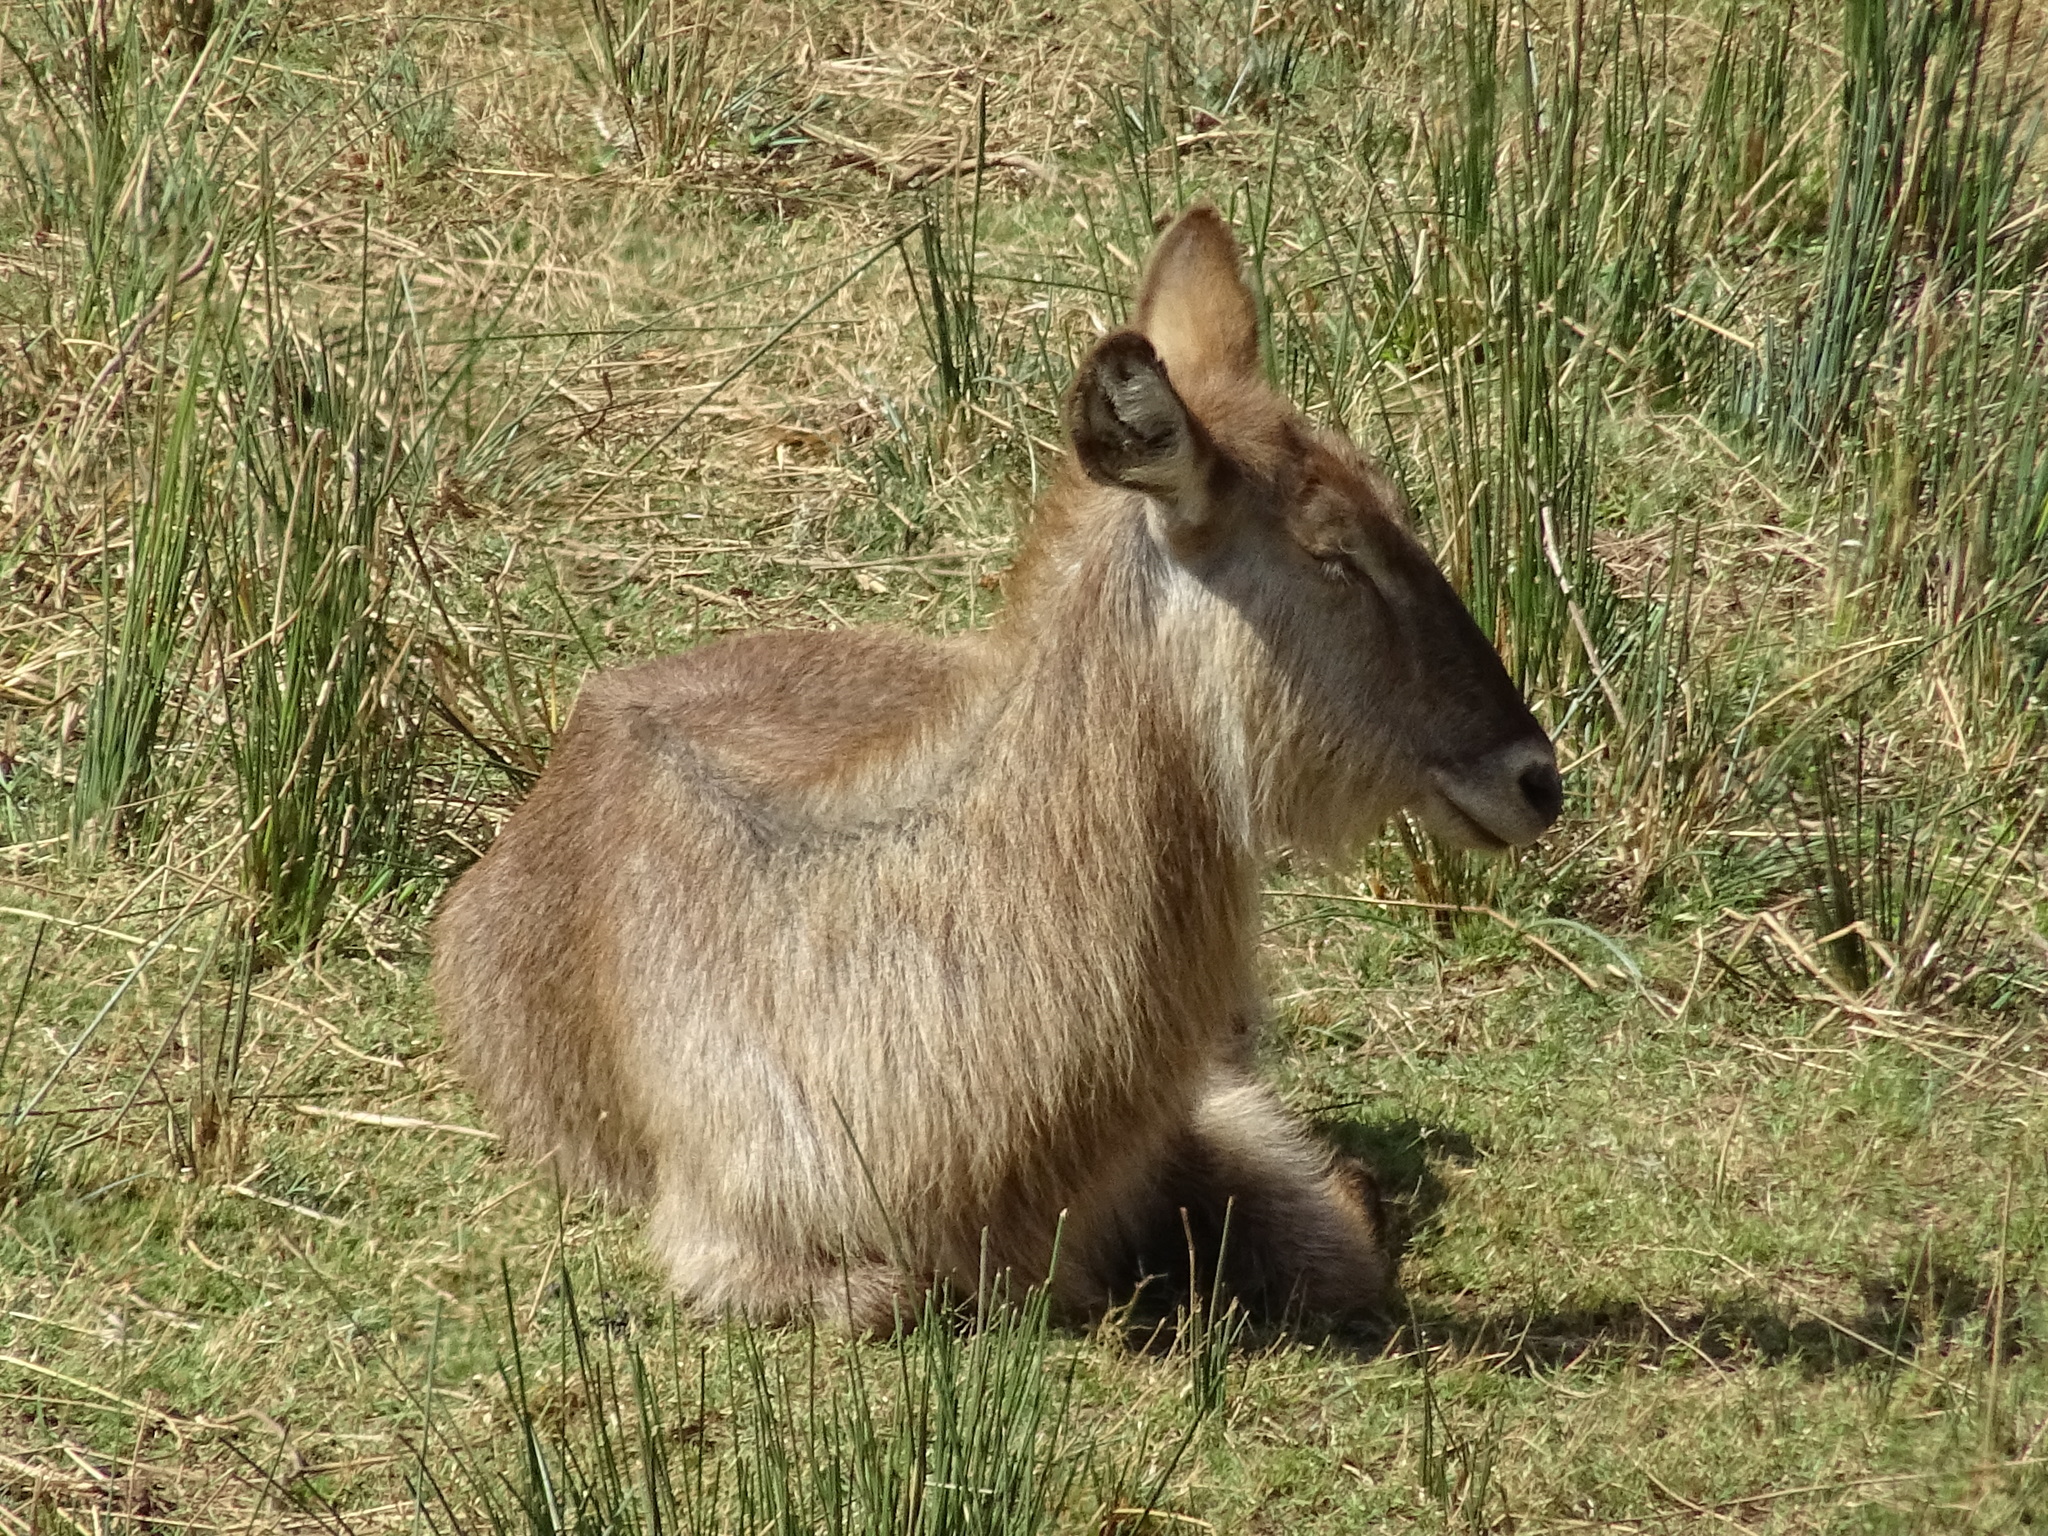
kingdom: Animalia
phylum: Chordata
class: Mammalia
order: Artiodactyla
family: Bovidae
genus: Kobus
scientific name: Kobus ellipsiprymnus
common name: Waterbuck
